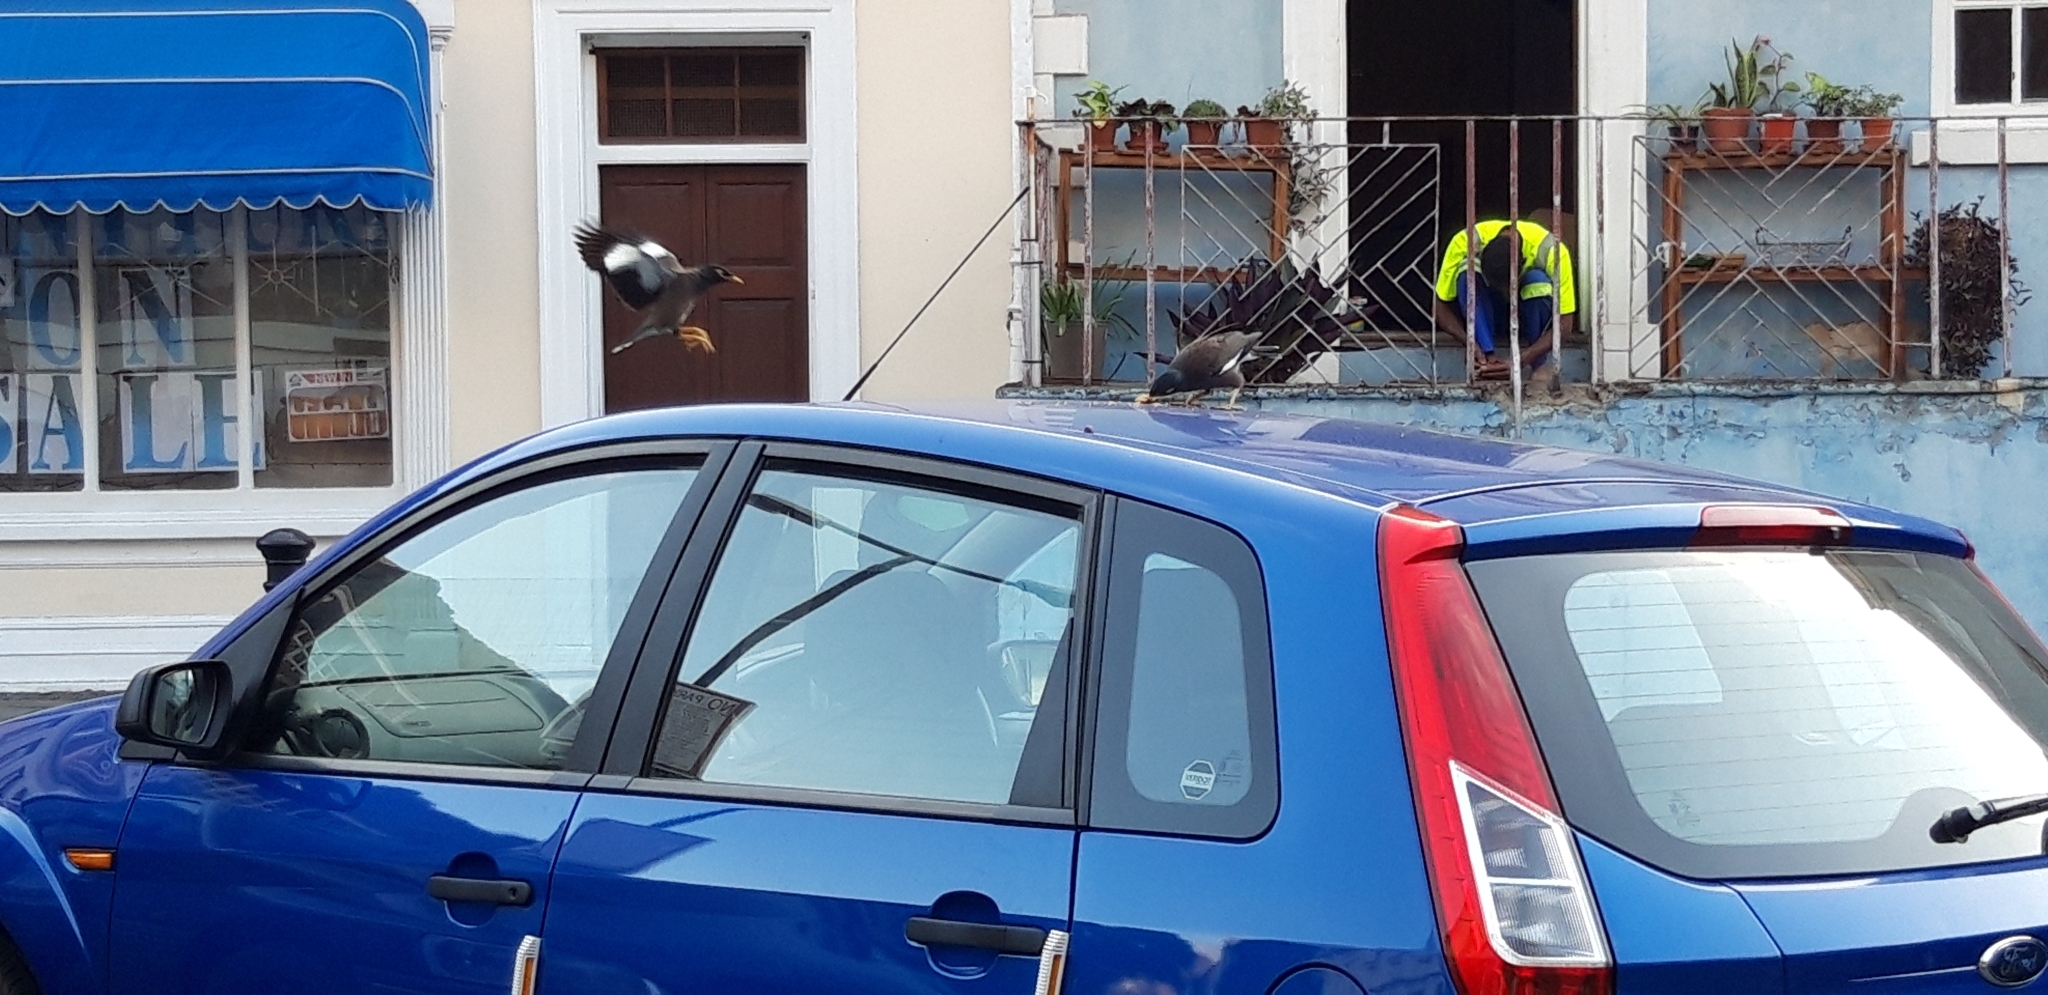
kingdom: Animalia
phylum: Chordata
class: Aves
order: Passeriformes
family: Sturnidae
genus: Acridotheres
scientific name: Acridotheres tristis
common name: Common myna
